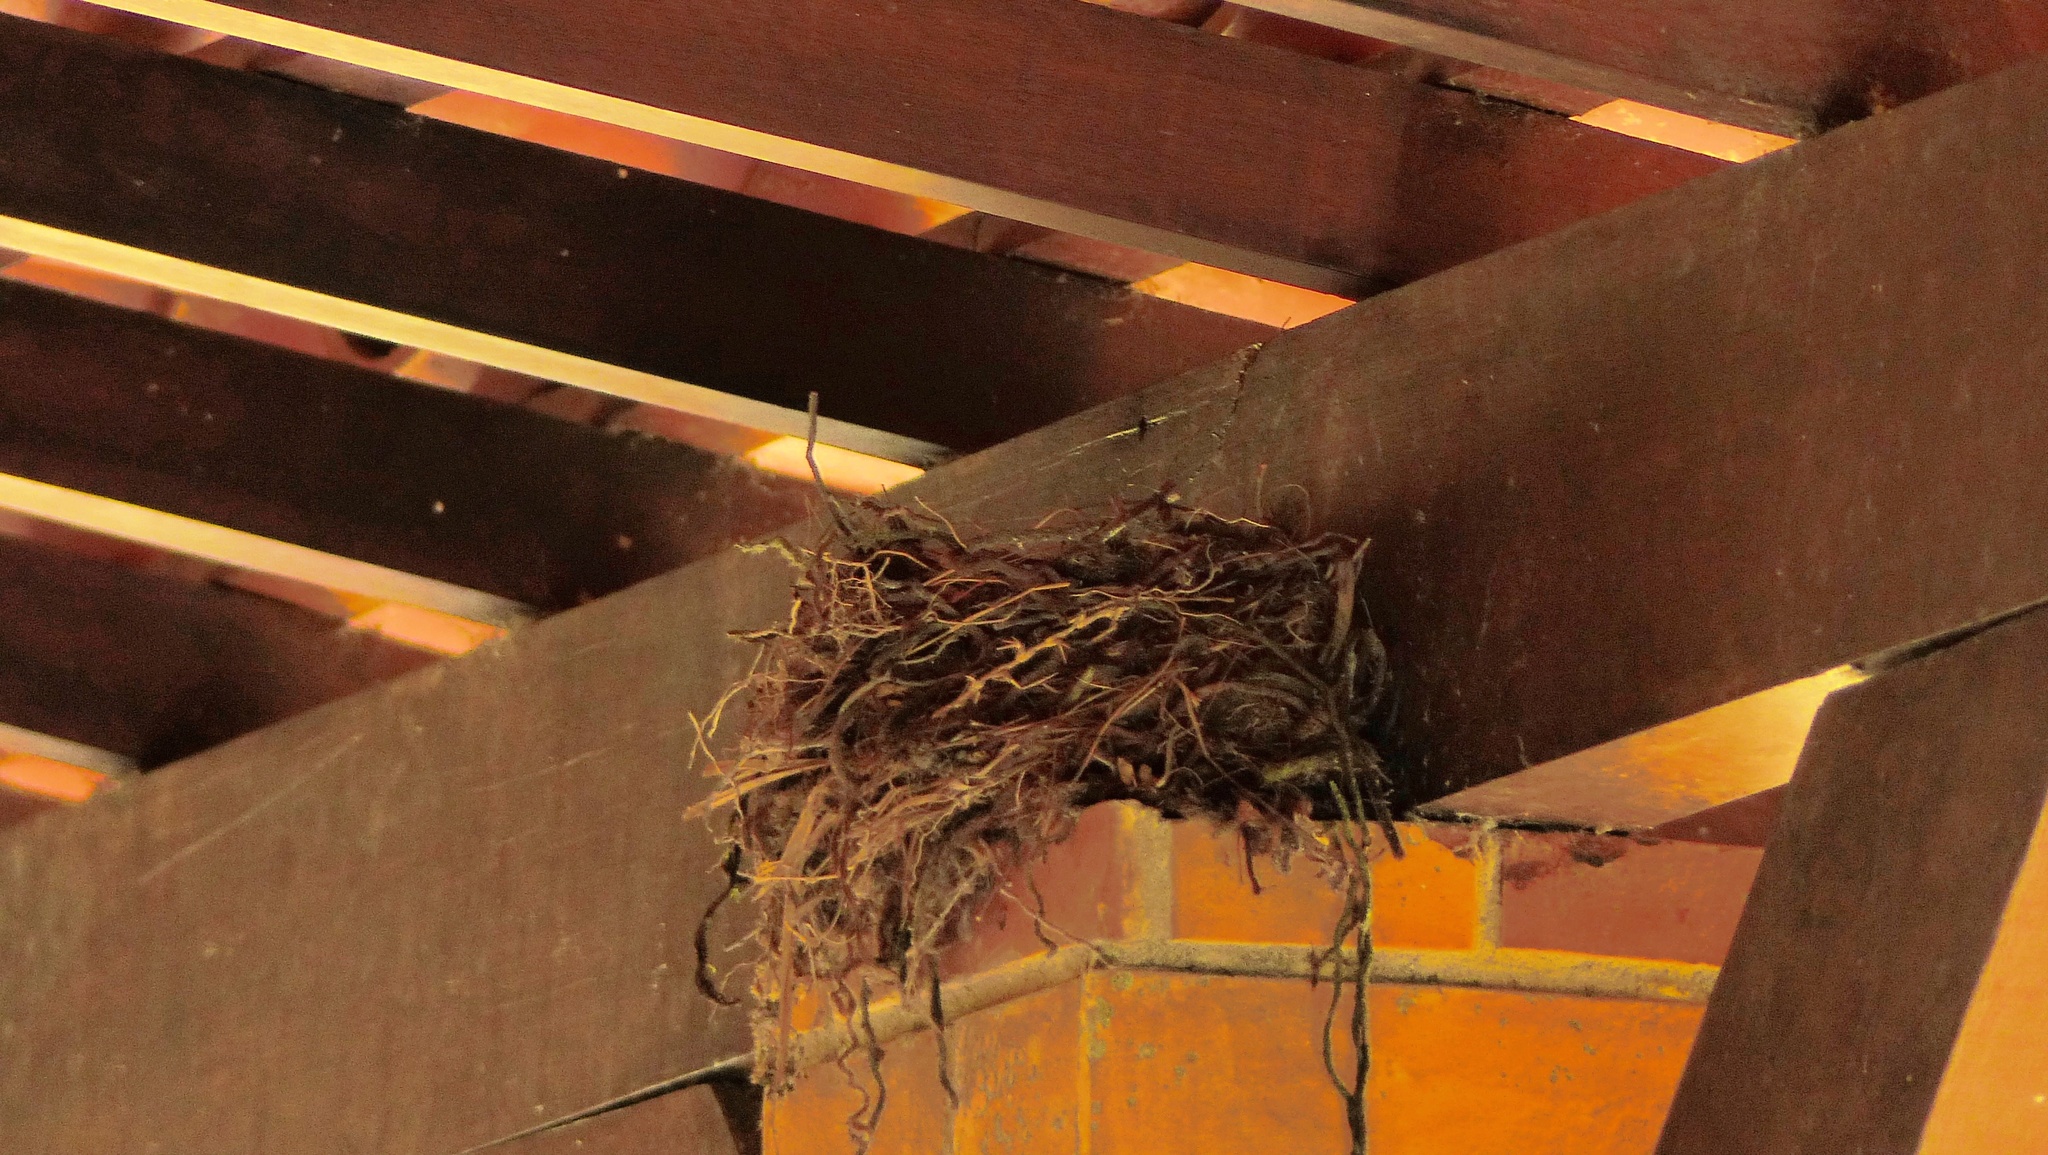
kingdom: Animalia
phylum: Chordata
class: Aves
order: Passeriformes
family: Turdidae
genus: Turdus
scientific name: Turdus leucomelas
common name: Pale-breasted thrush
